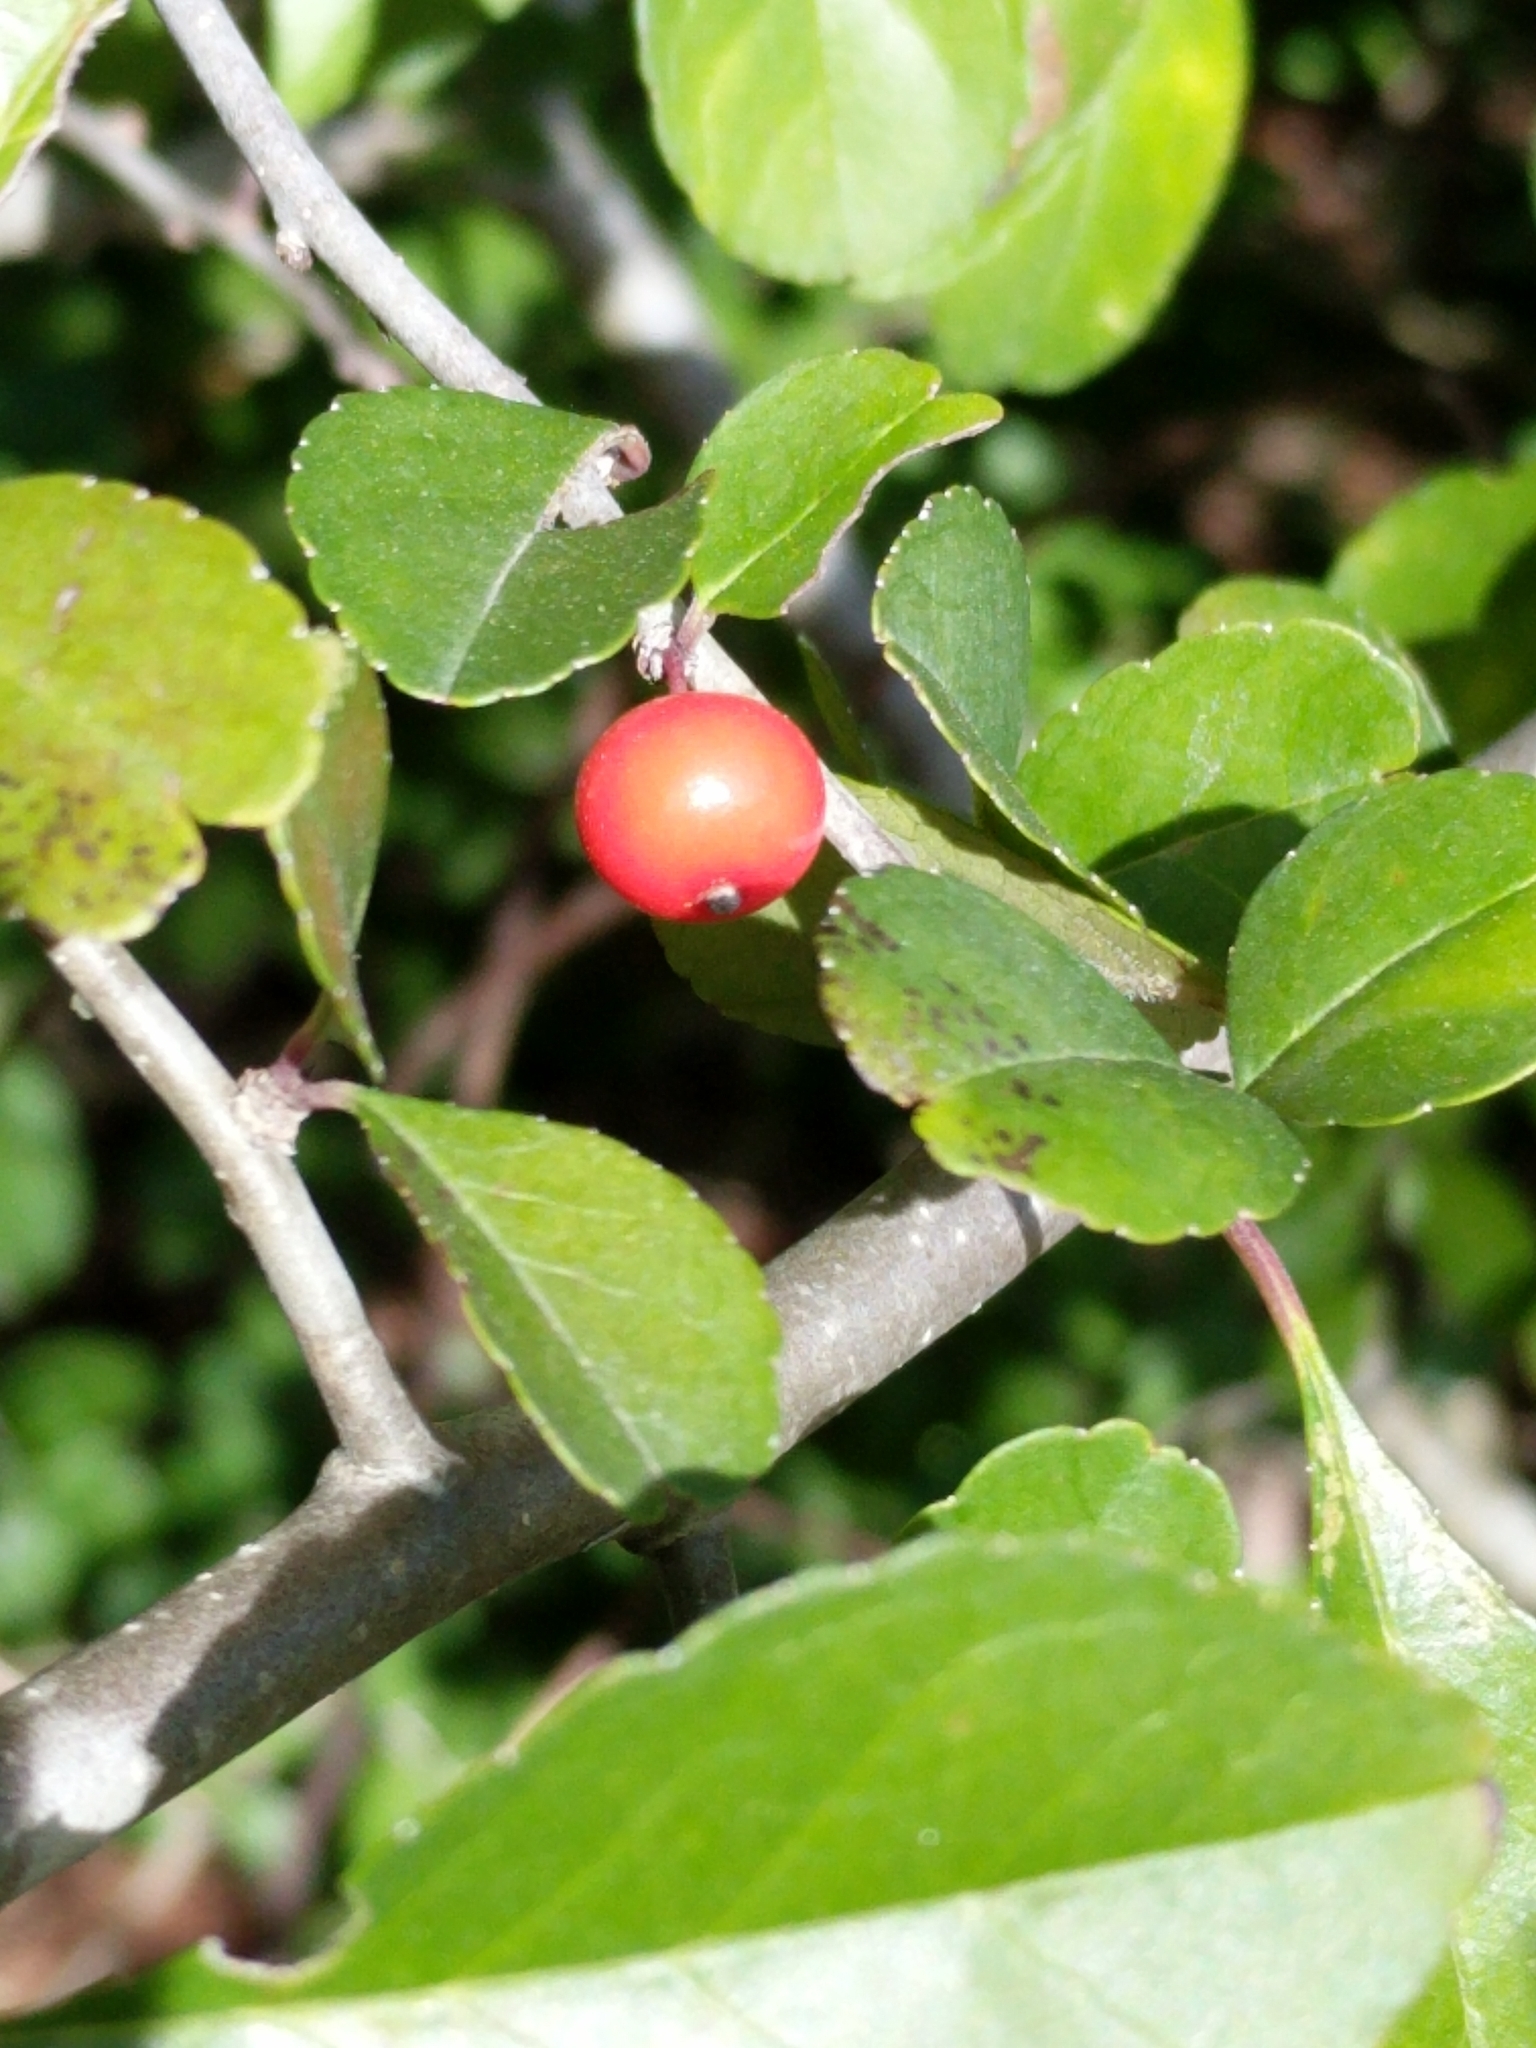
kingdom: Plantae
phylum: Tracheophyta
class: Magnoliopsida
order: Aquifoliales
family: Aquifoliaceae
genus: Ilex
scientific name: Ilex decidua
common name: Possum-haw
